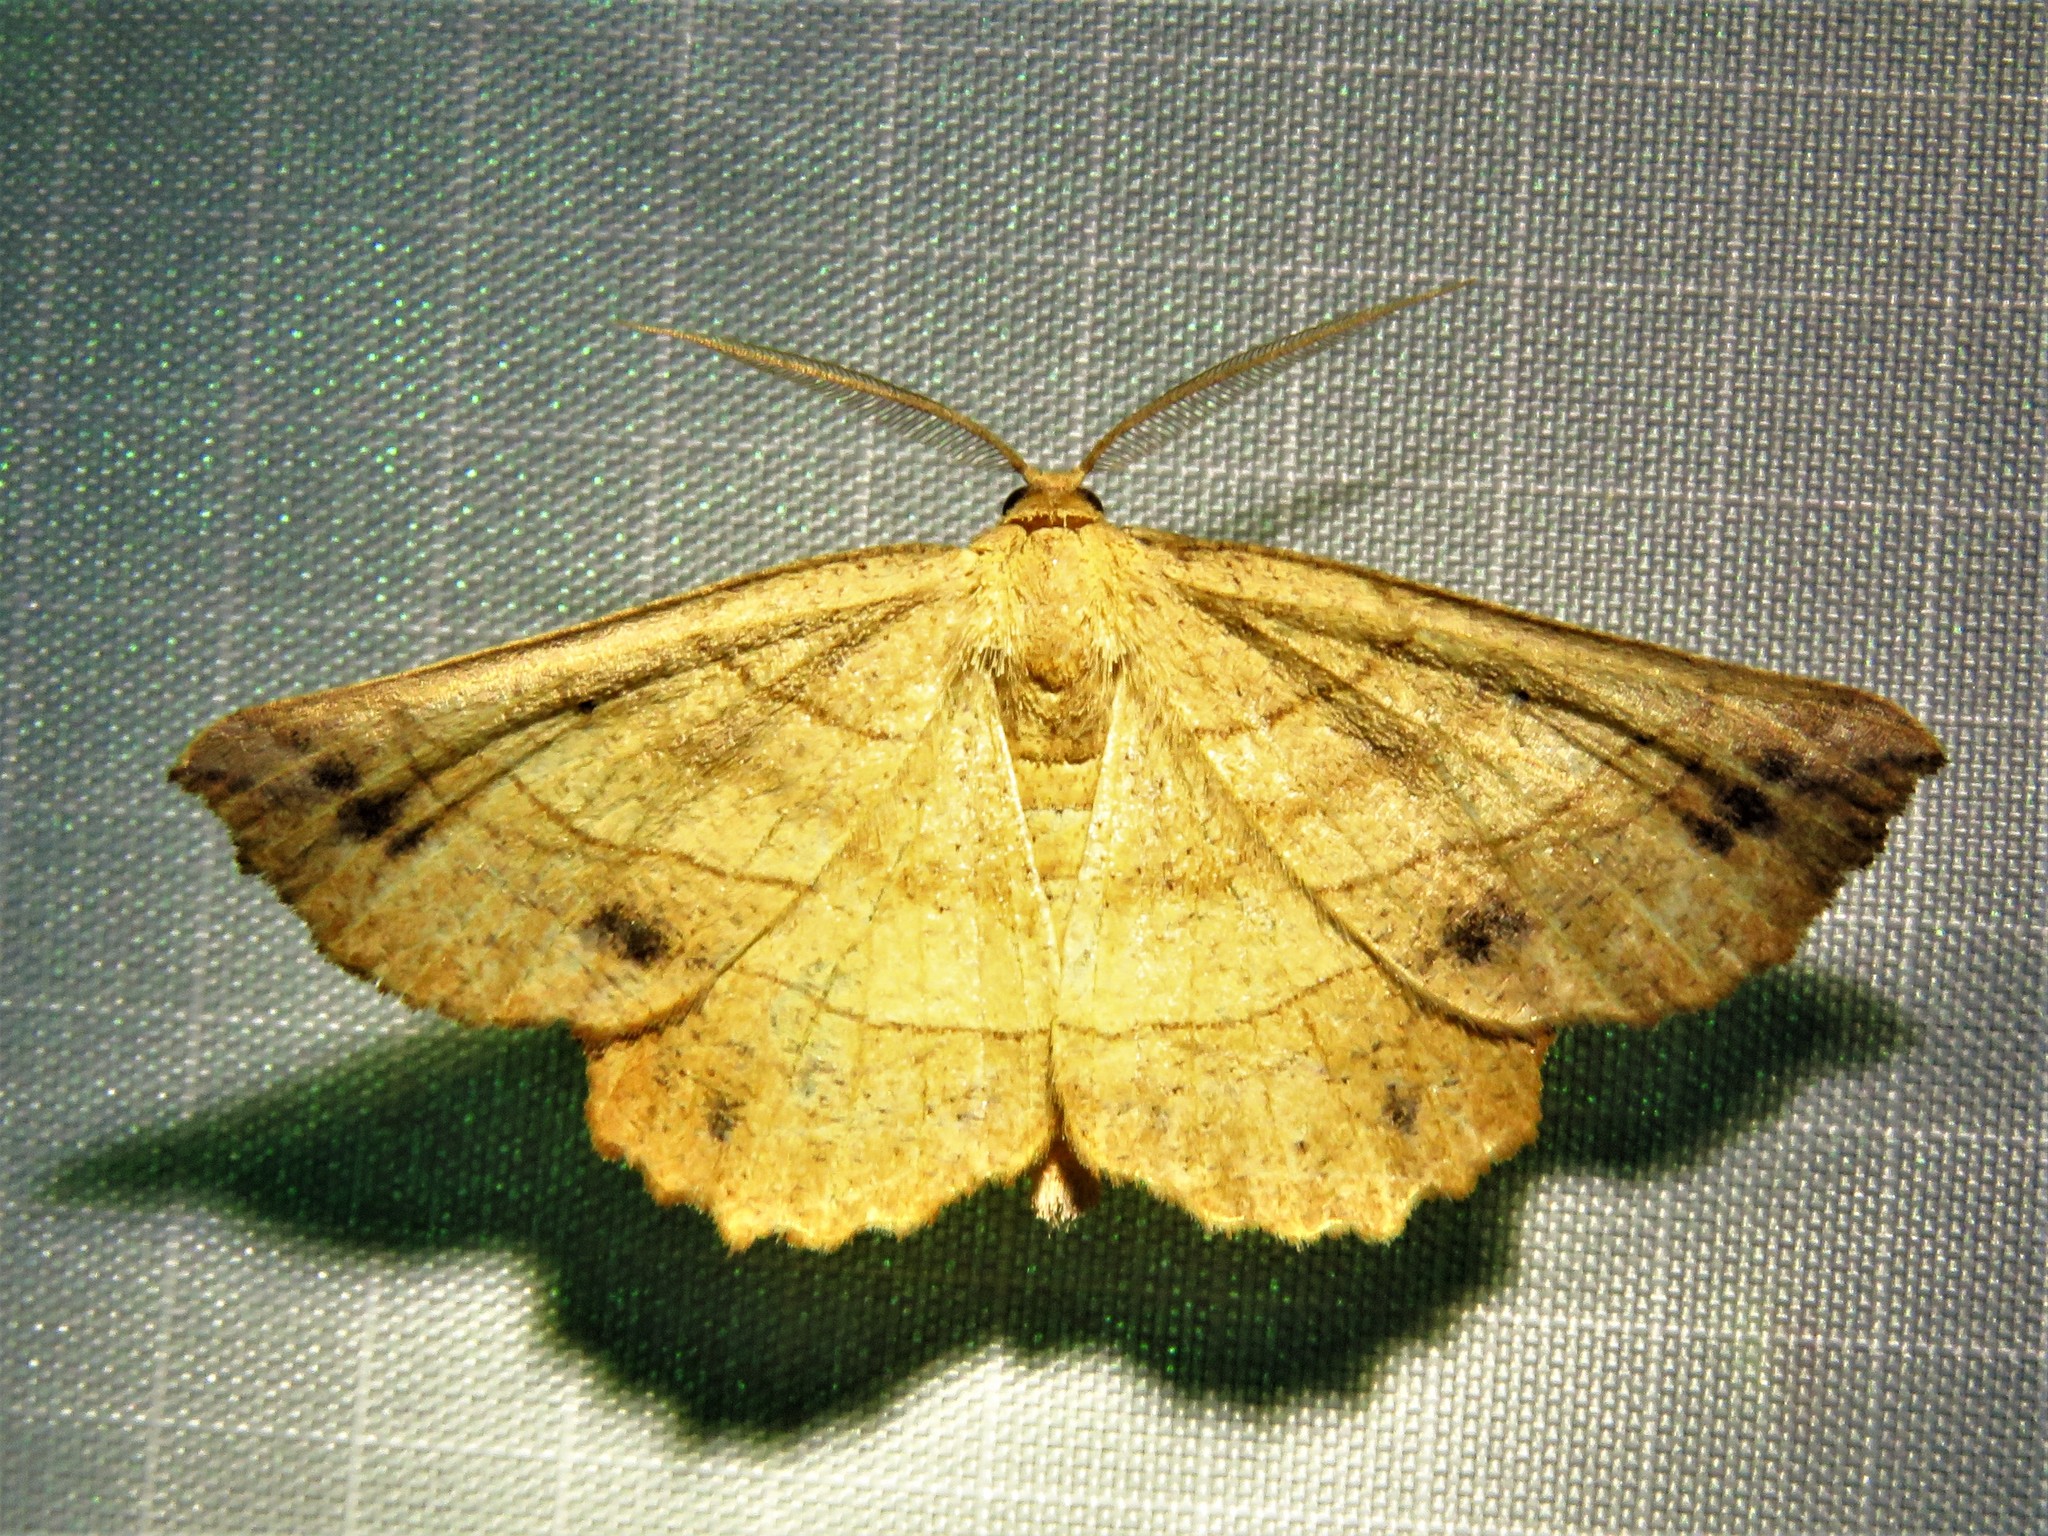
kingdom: Animalia
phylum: Arthropoda
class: Insecta
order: Lepidoptera
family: Geometridae
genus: Euchlaena
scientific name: Euchlaena johnsonaria
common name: Johnson's euchlaena
